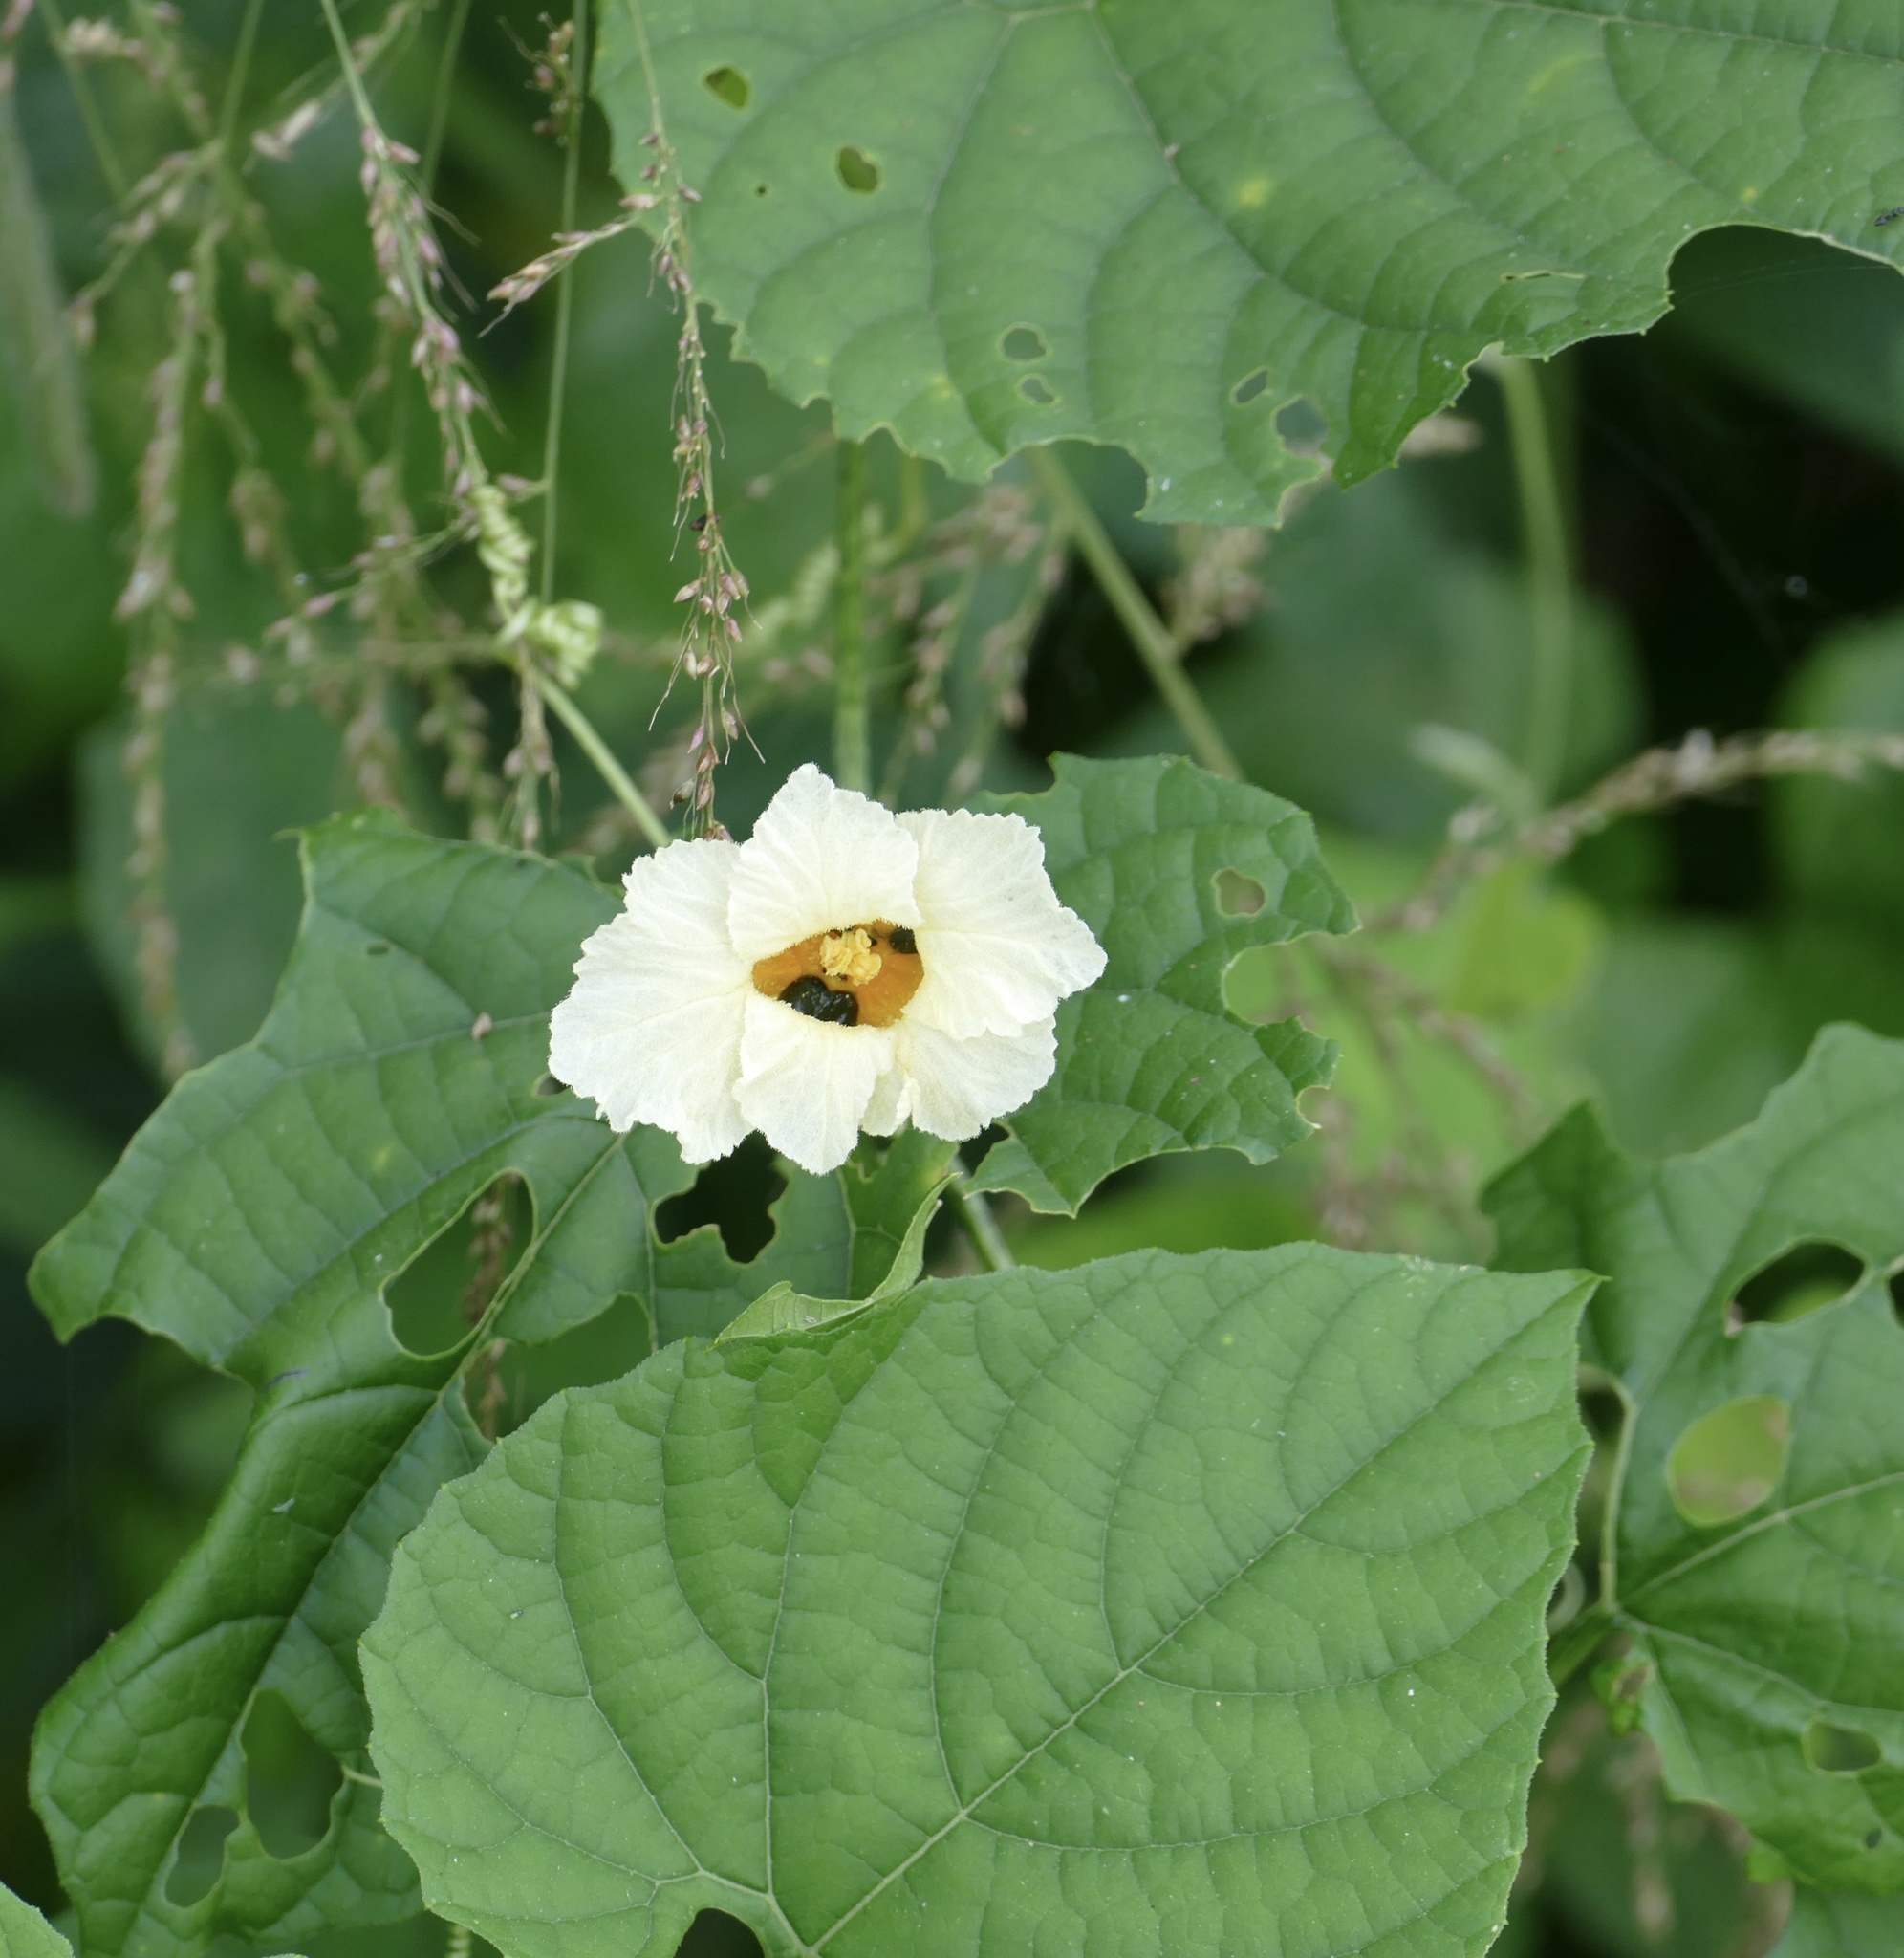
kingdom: Plantae
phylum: Tracheophyta
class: Magnoliopsida
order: Cucurbitales
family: Cucurbitaceae
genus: Momordica
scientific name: Momordica foetida
